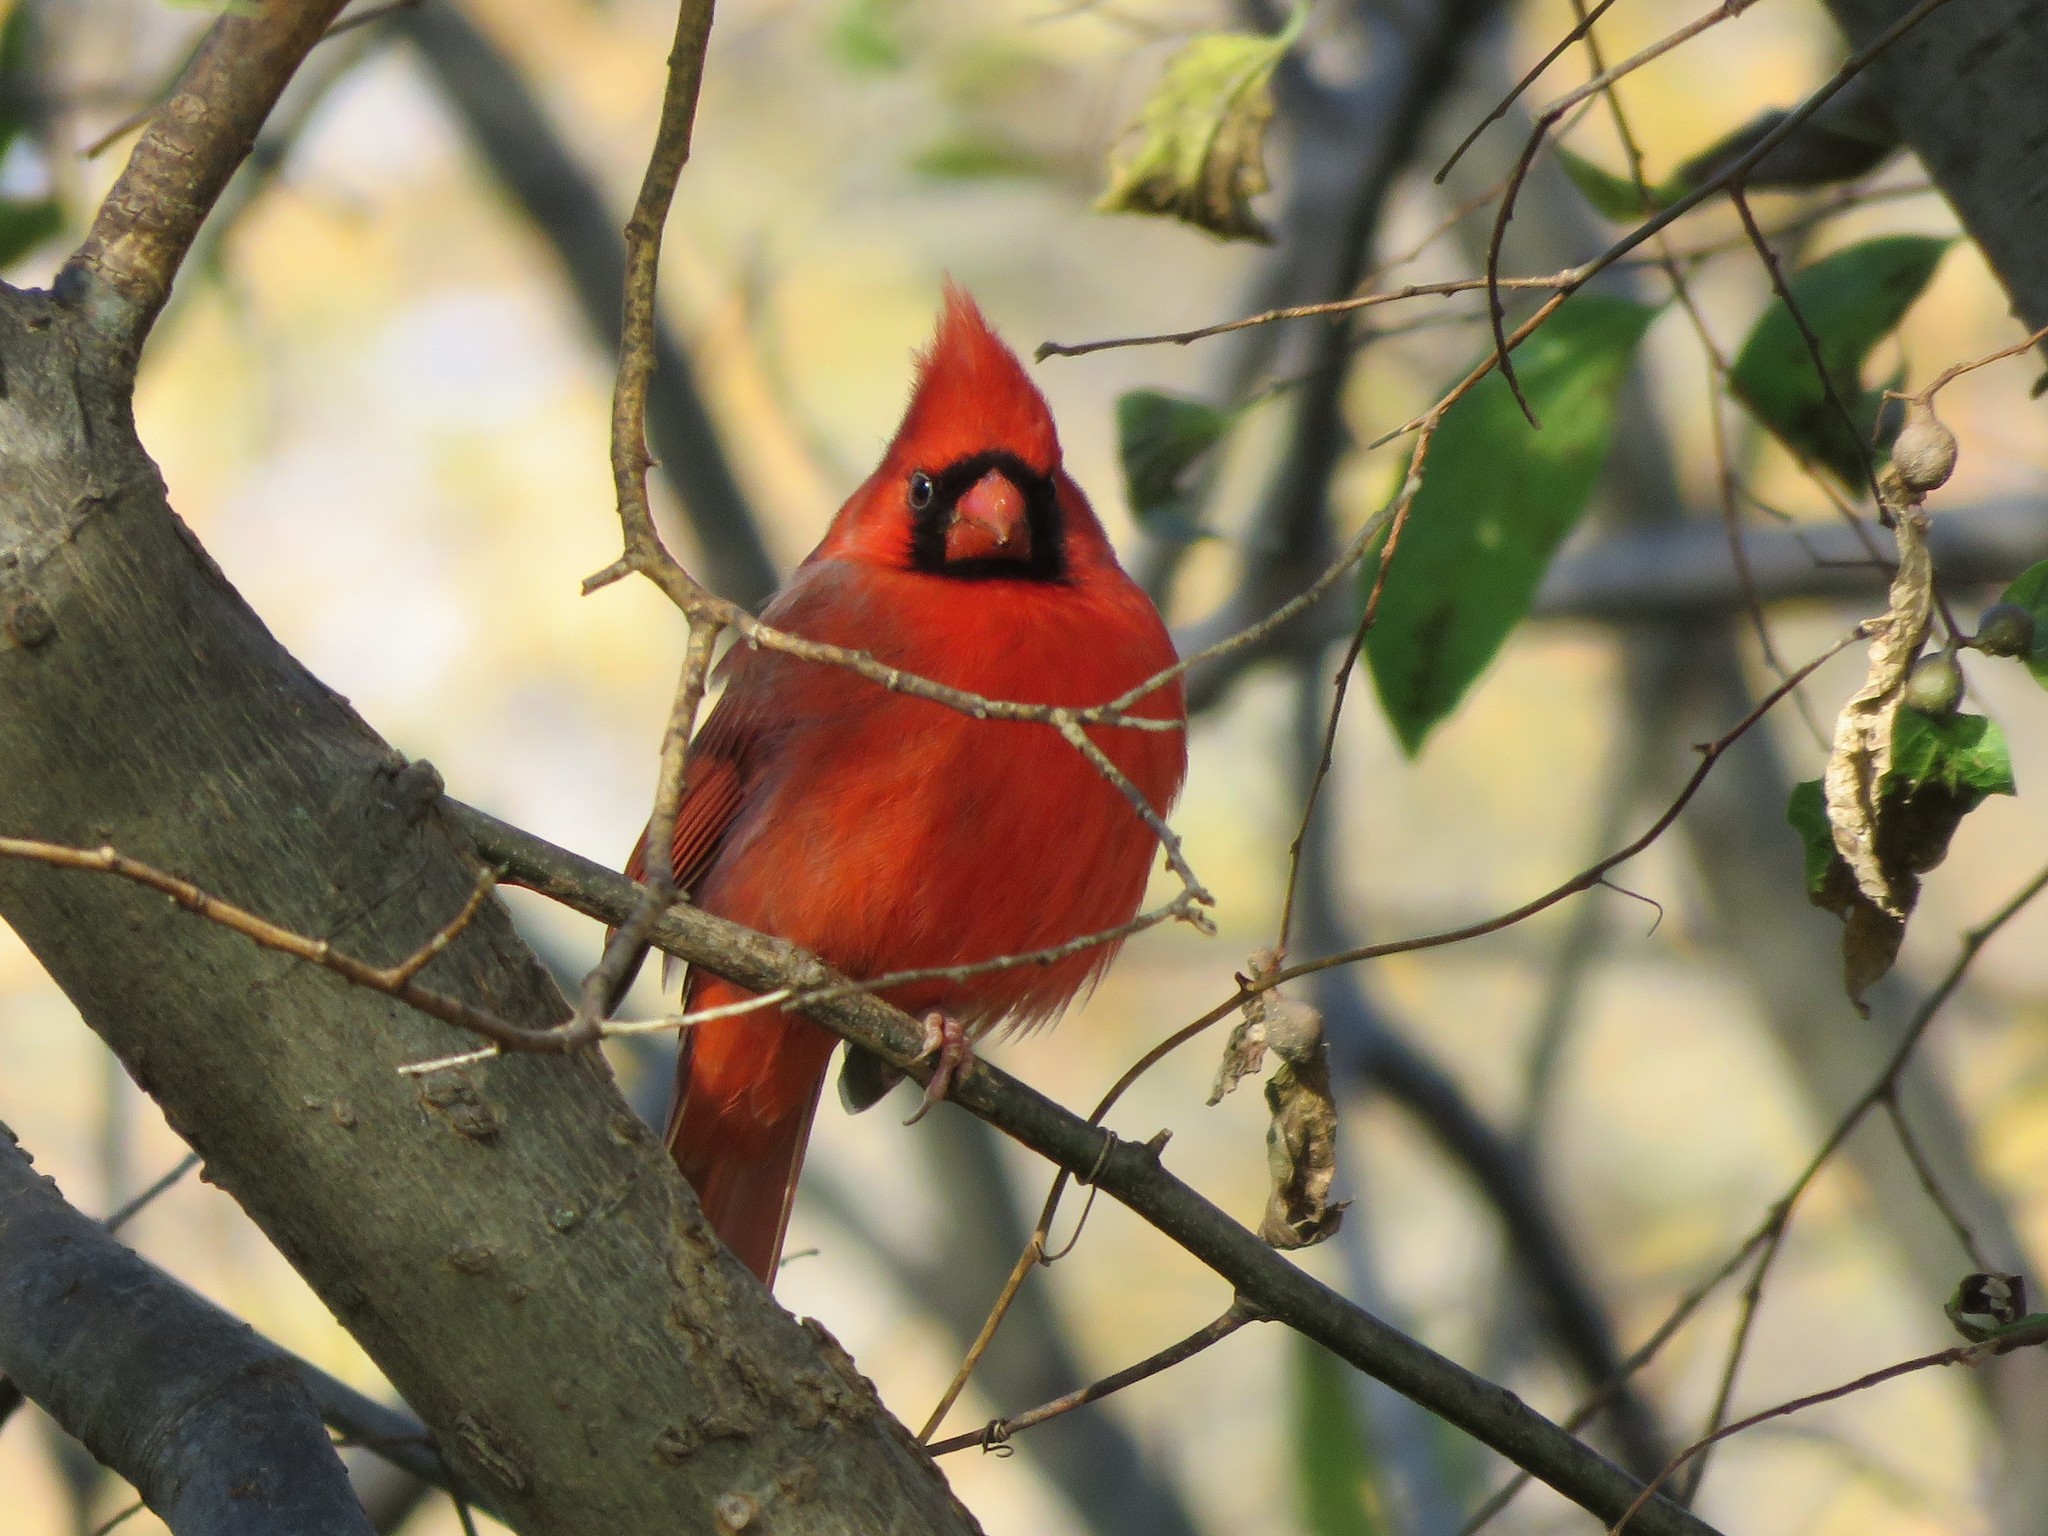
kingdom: Animalia
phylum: Chordata
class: Aves
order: Passeriformes
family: Cardinalidae
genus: Cardinalis
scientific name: Cardinalis cardinalis
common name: Northern cardinal
